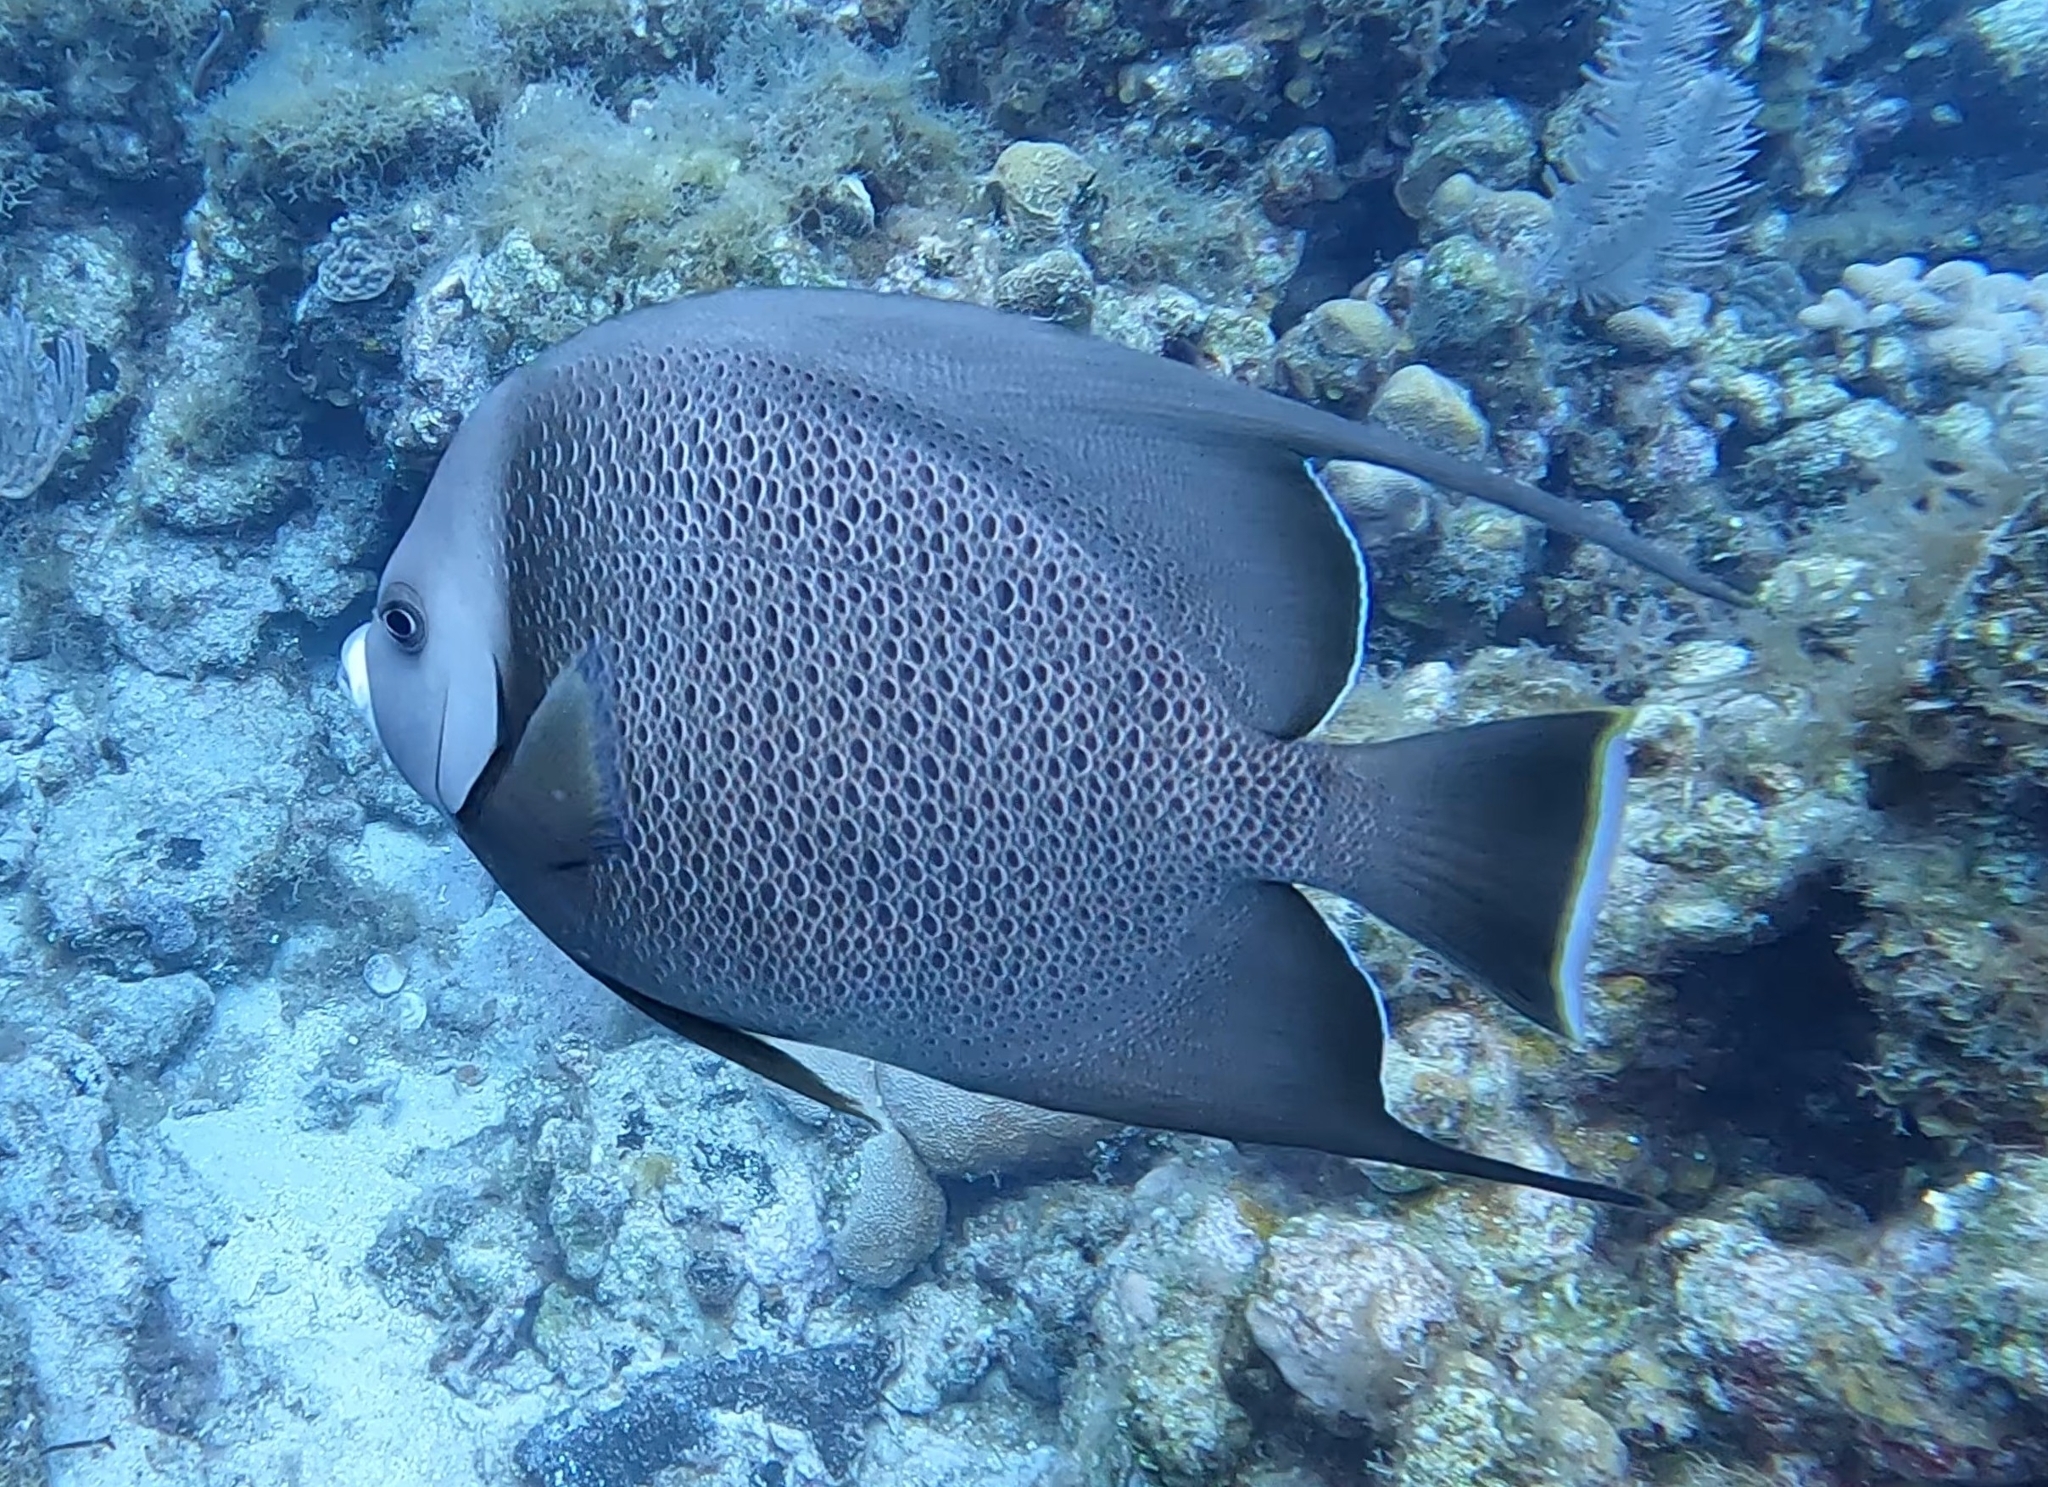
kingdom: Animalia
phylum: Chordata
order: Perciformes
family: Pomacanthidae
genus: Pomacanthus
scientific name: Pomacanthus arcuatus
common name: Gray angelfish
